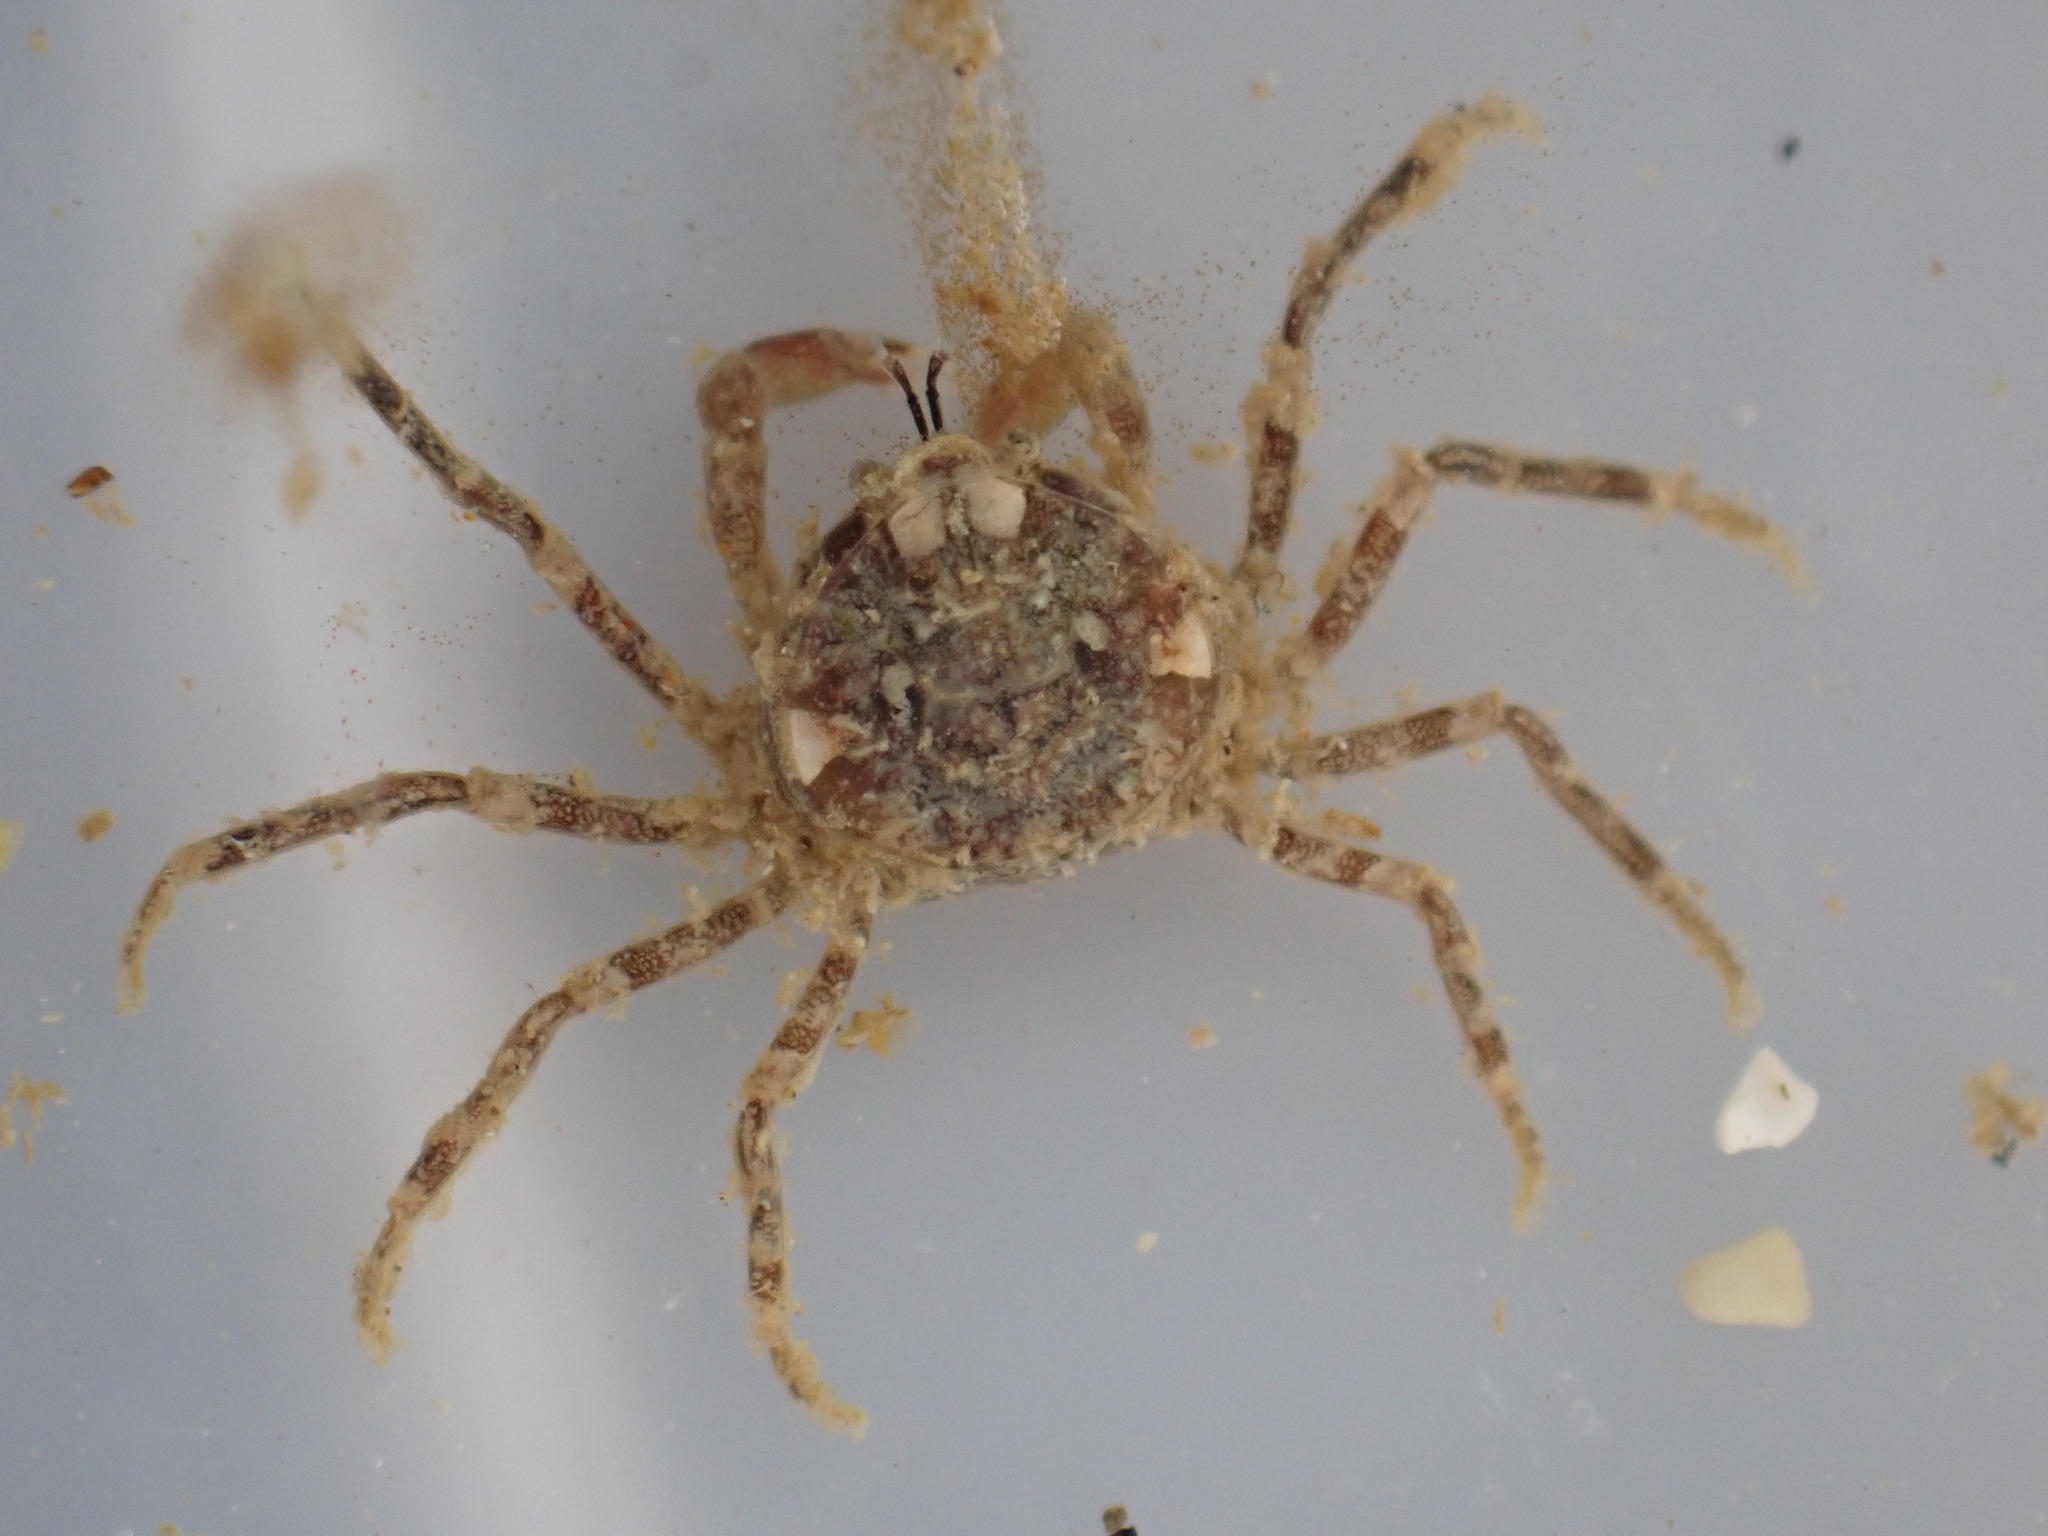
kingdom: Animalia
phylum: Arthropoda
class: Malacostraca
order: Decapoda
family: Hymenosomatidae
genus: Halicarcinus
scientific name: Halicarcinus varius
